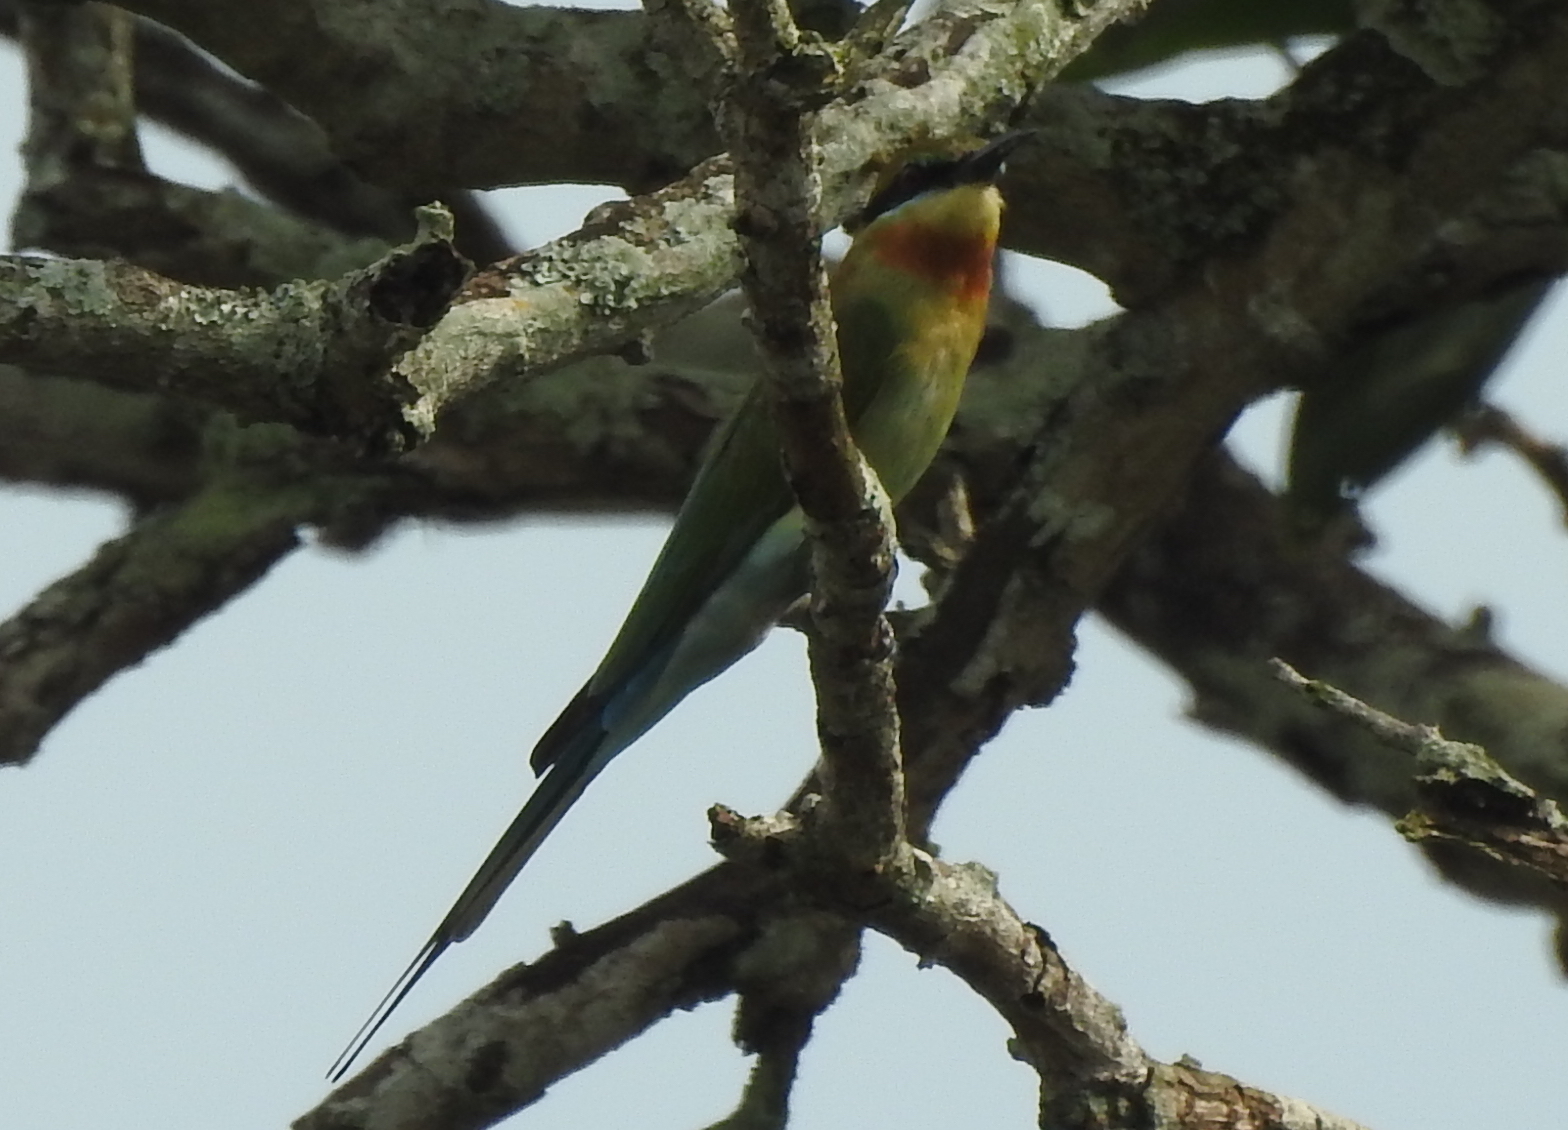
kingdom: Animalia
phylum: Chordata
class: Aves
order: Coraciiformes
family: Meropidae
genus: Merops
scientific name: Merops philippinus
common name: Blue-tailed bee-eater
